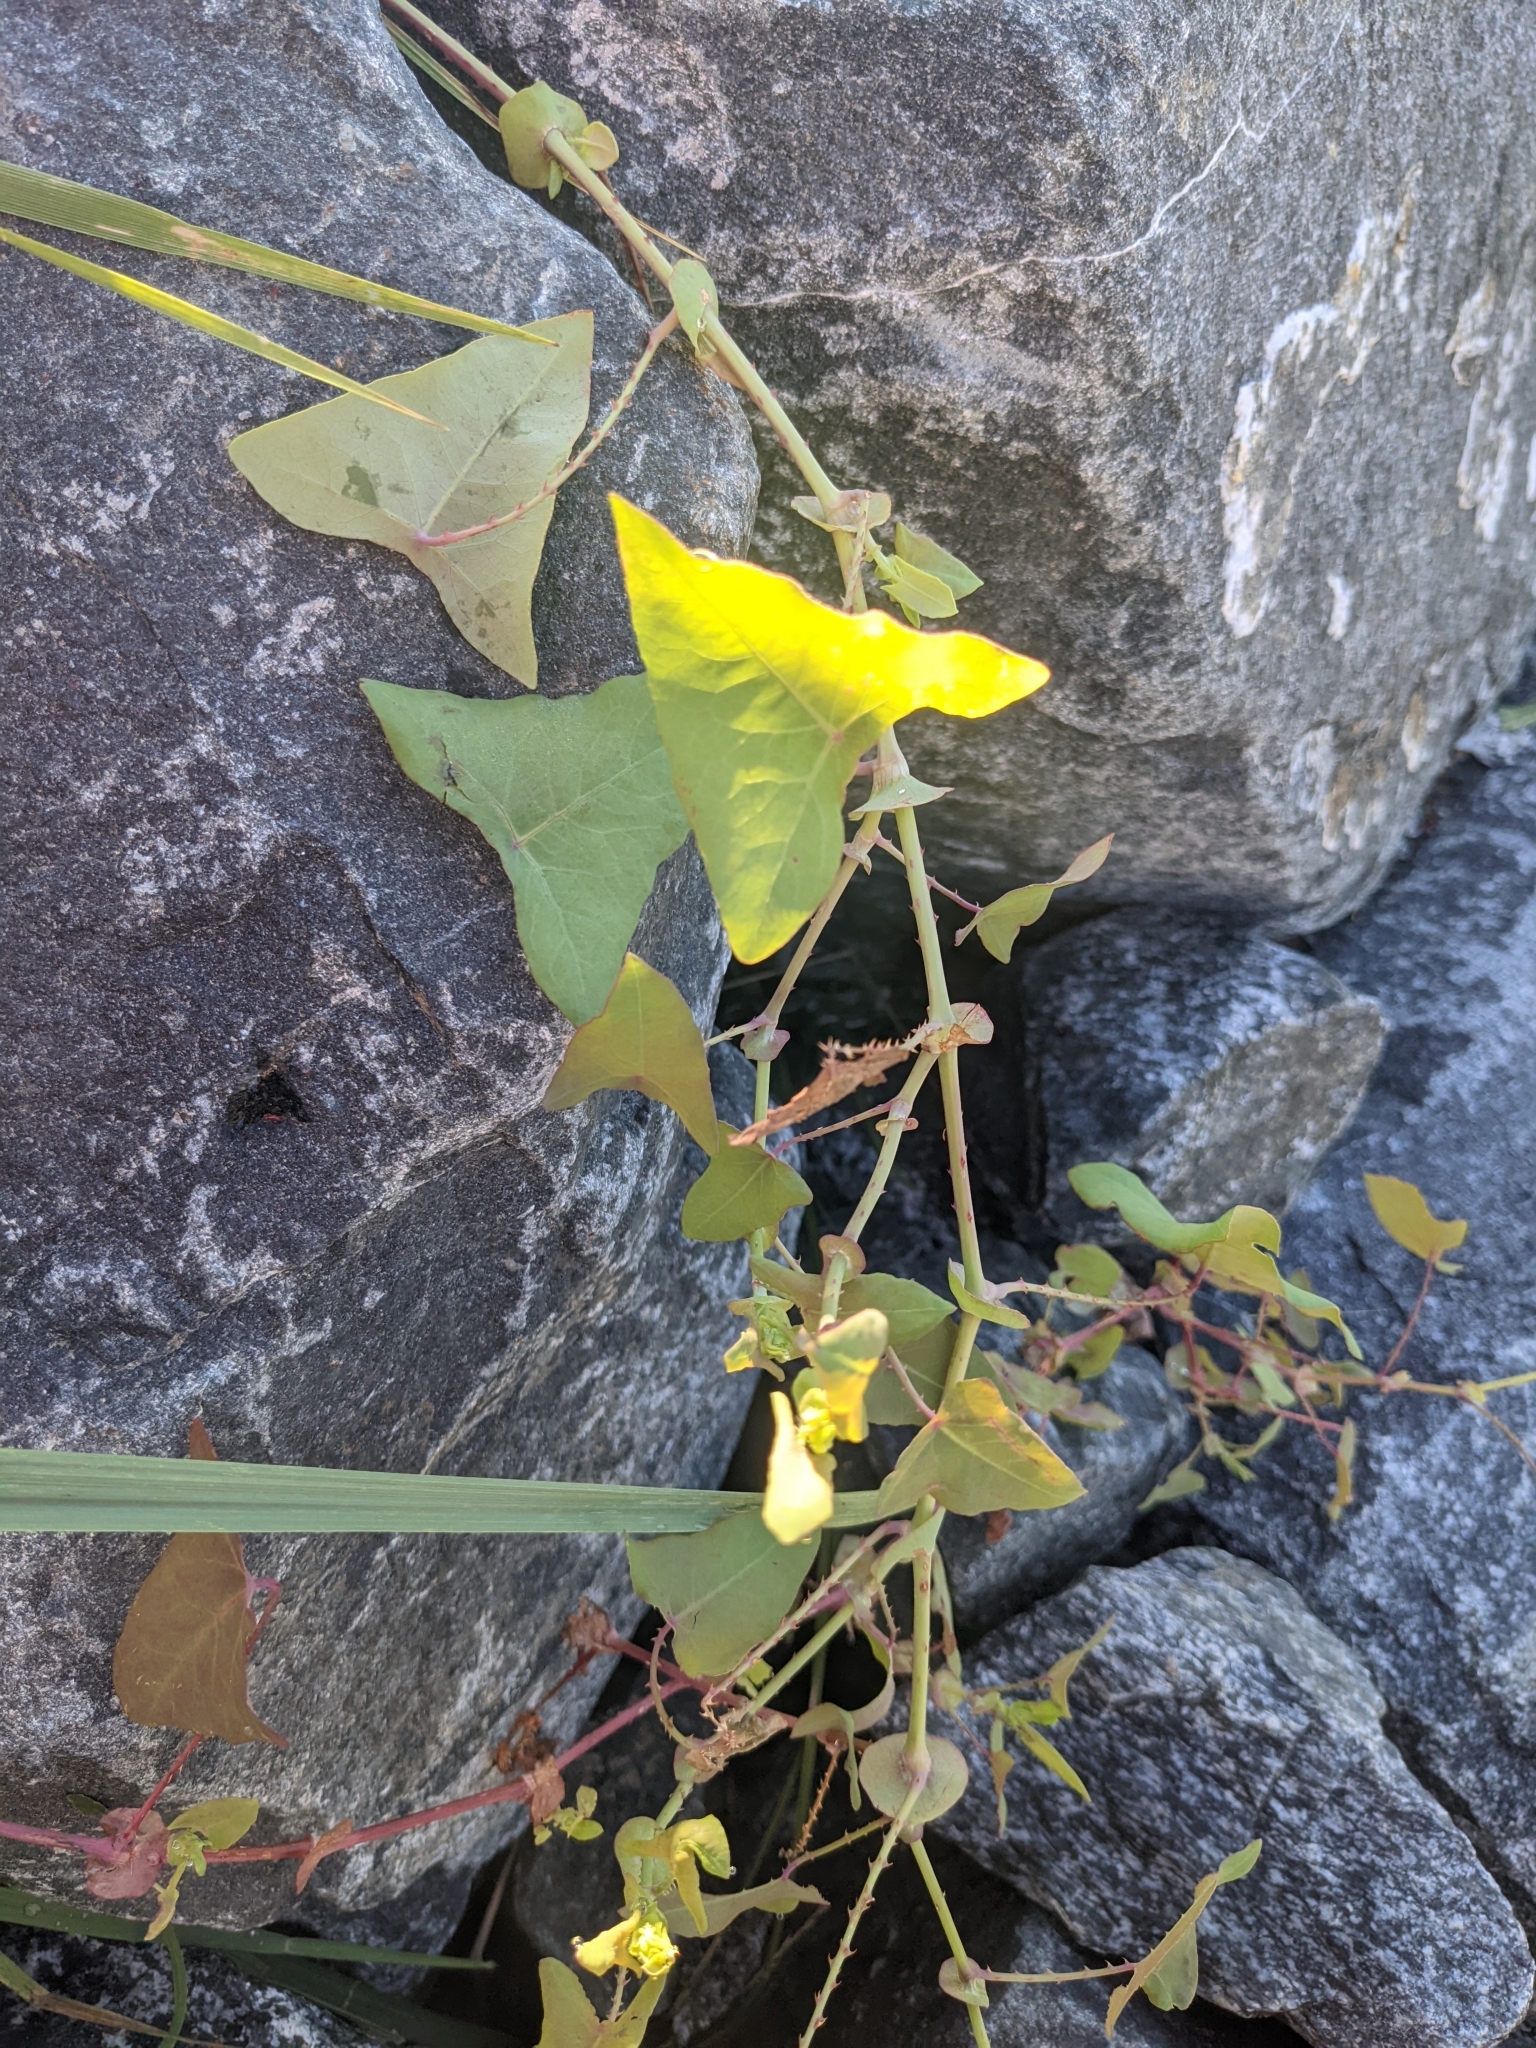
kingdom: Plantae
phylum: Tracheophyta
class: Magnoliopsida
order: Caryophyllales
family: Polygonaceae
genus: Persicaria
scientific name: Persicaria perfoliata
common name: Asiatic tearthumb
